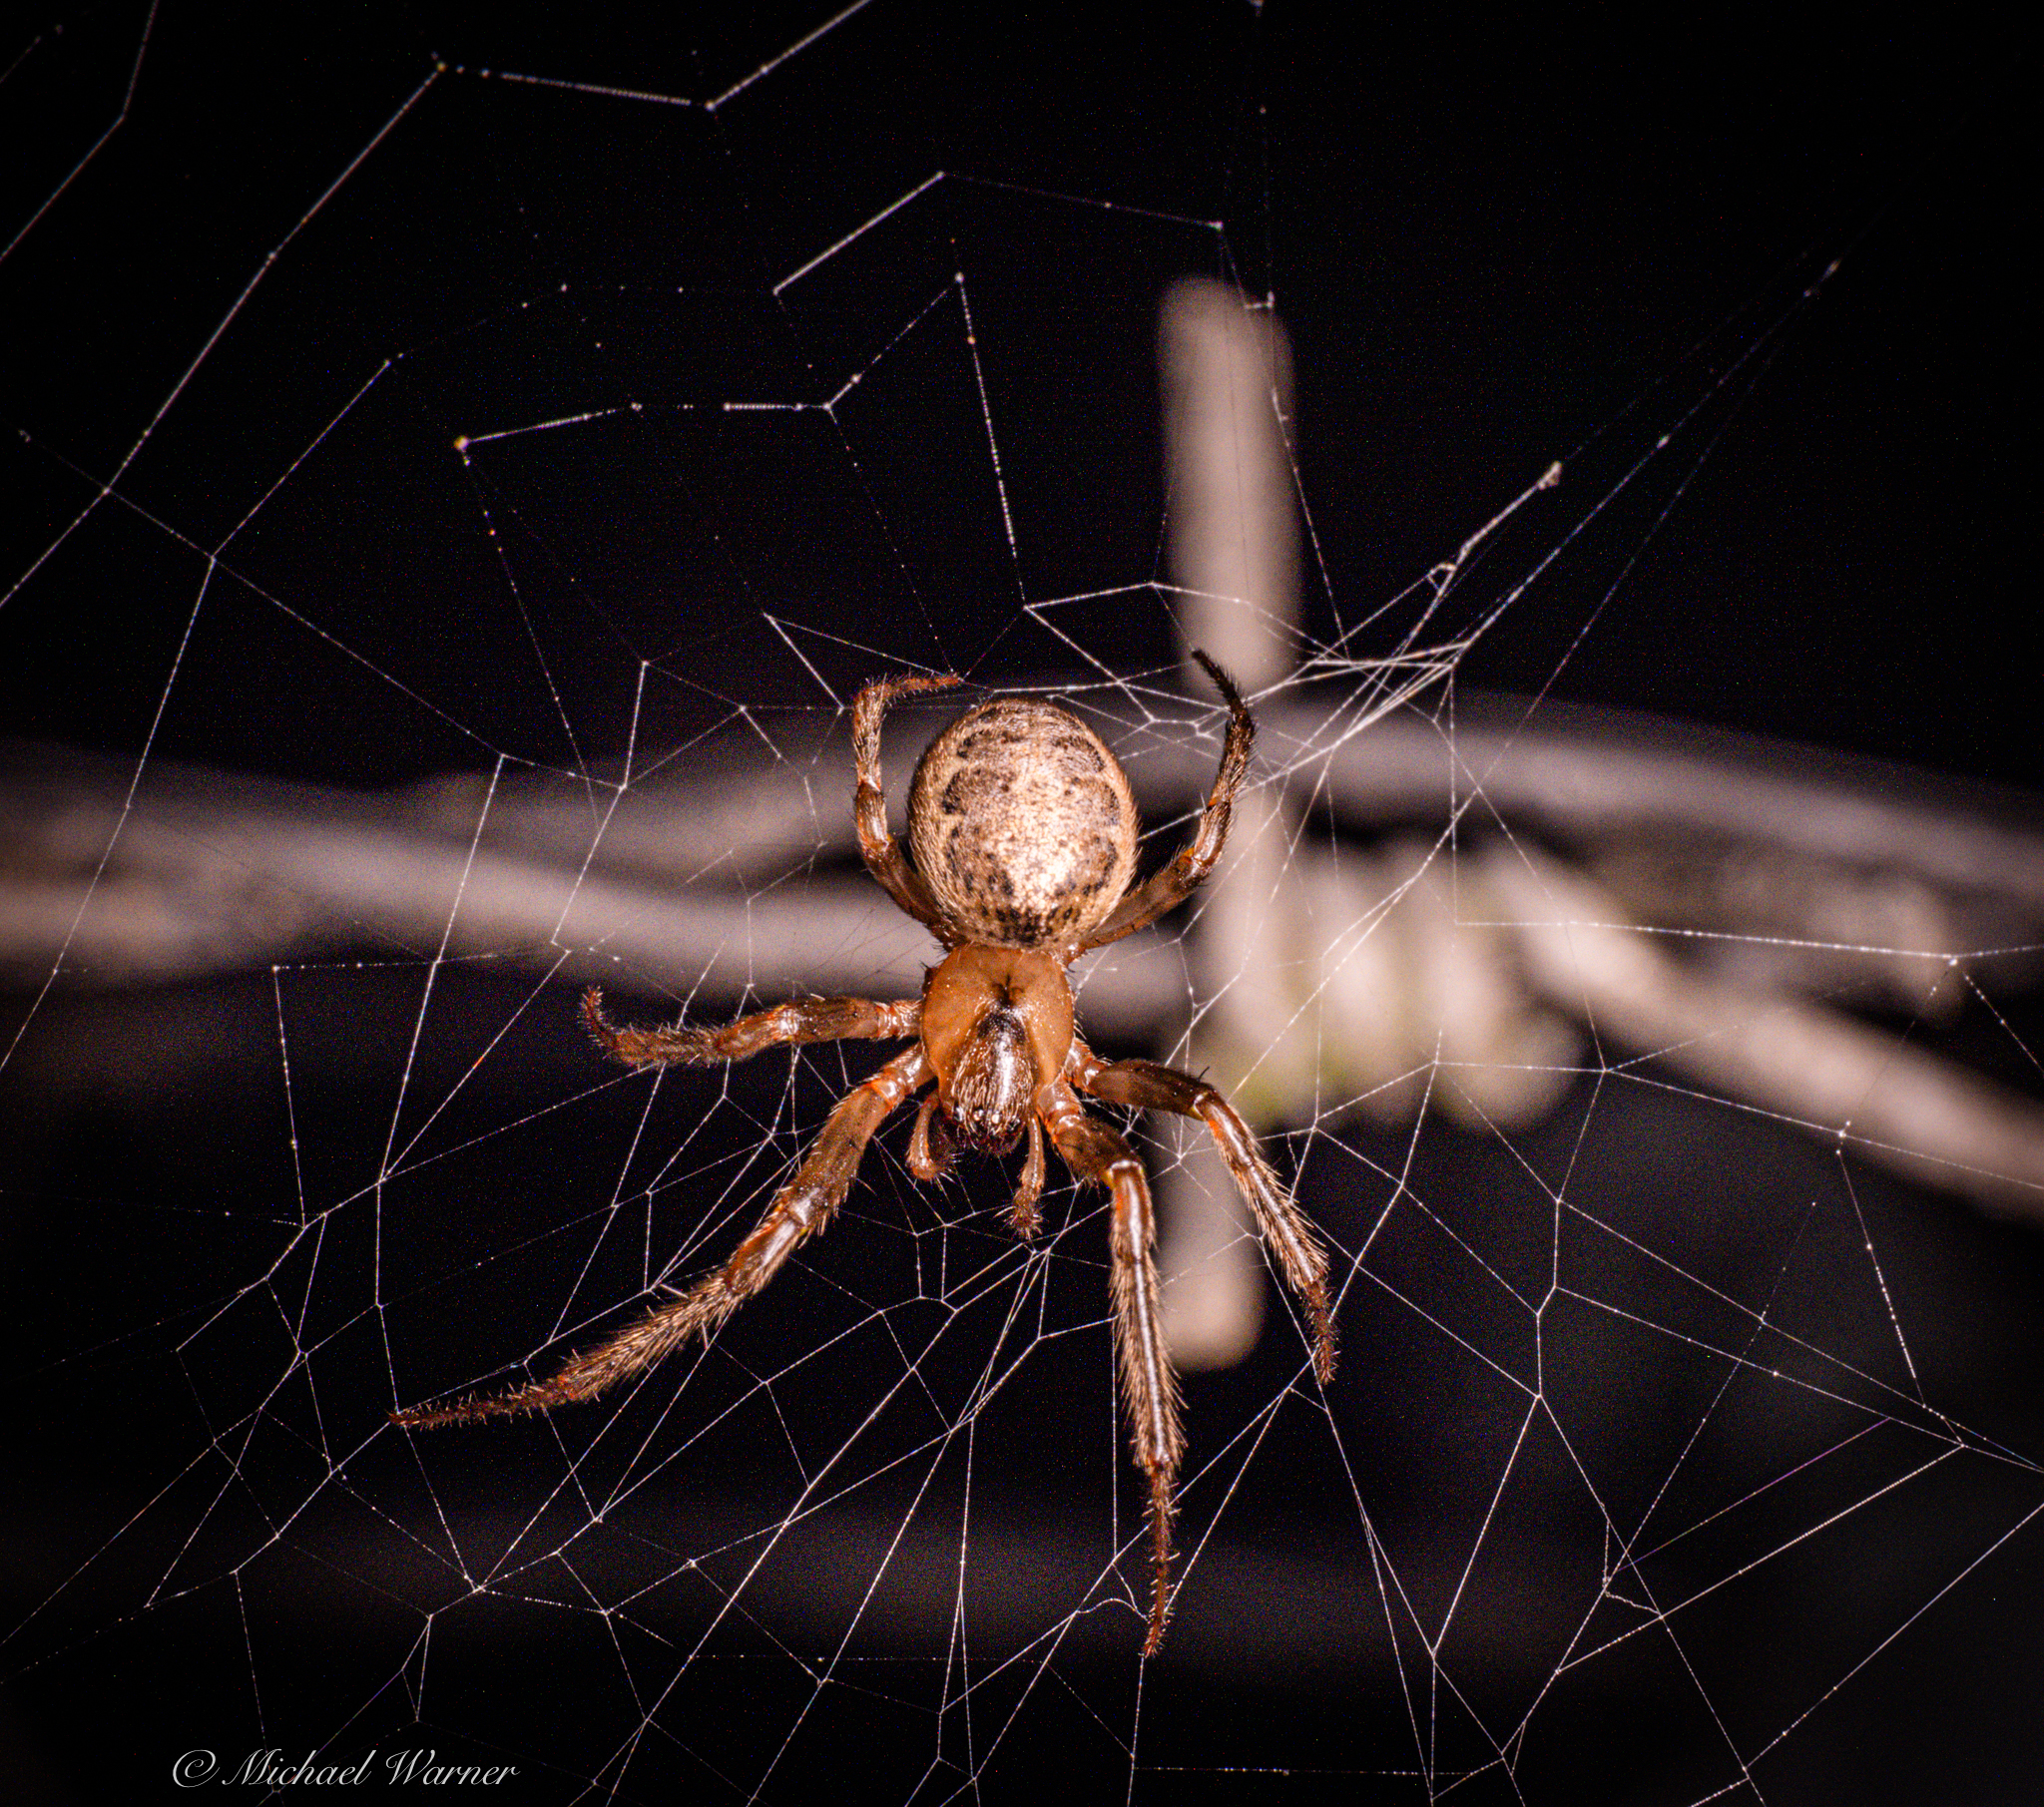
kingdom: Animalia
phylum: Arthropoda
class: Arachnida
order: Araneae
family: Araneidae
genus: Zygiella
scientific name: Zygiella x-notata
